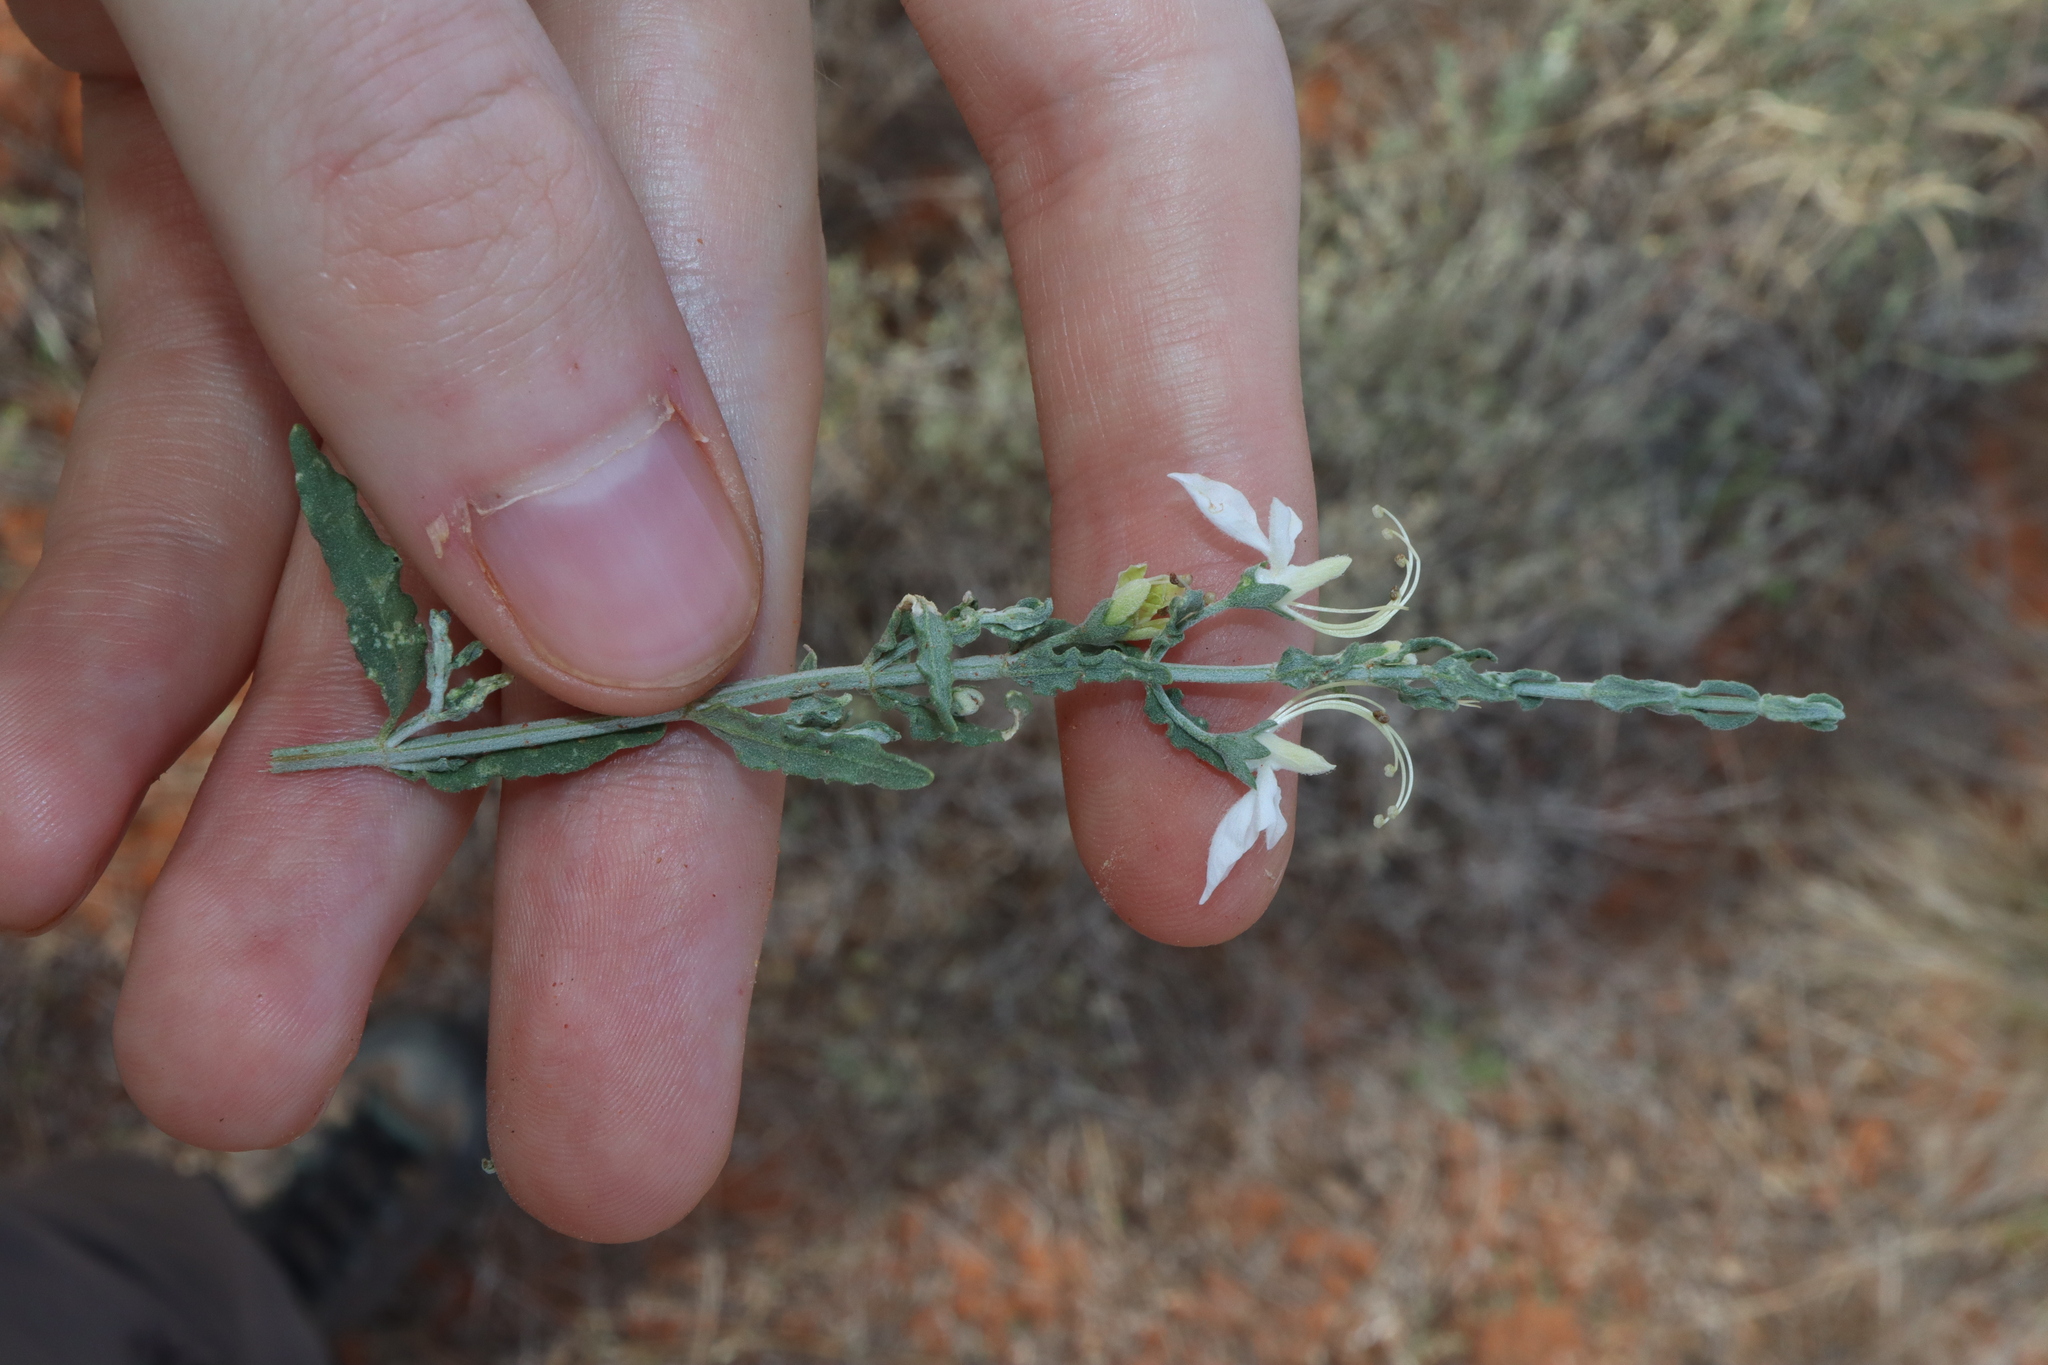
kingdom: Plantae
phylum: Tracheophyta
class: Magnoliopsida
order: Lamiales
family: Lamiaceae
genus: Teucrium
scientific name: Teucrium racemosum
